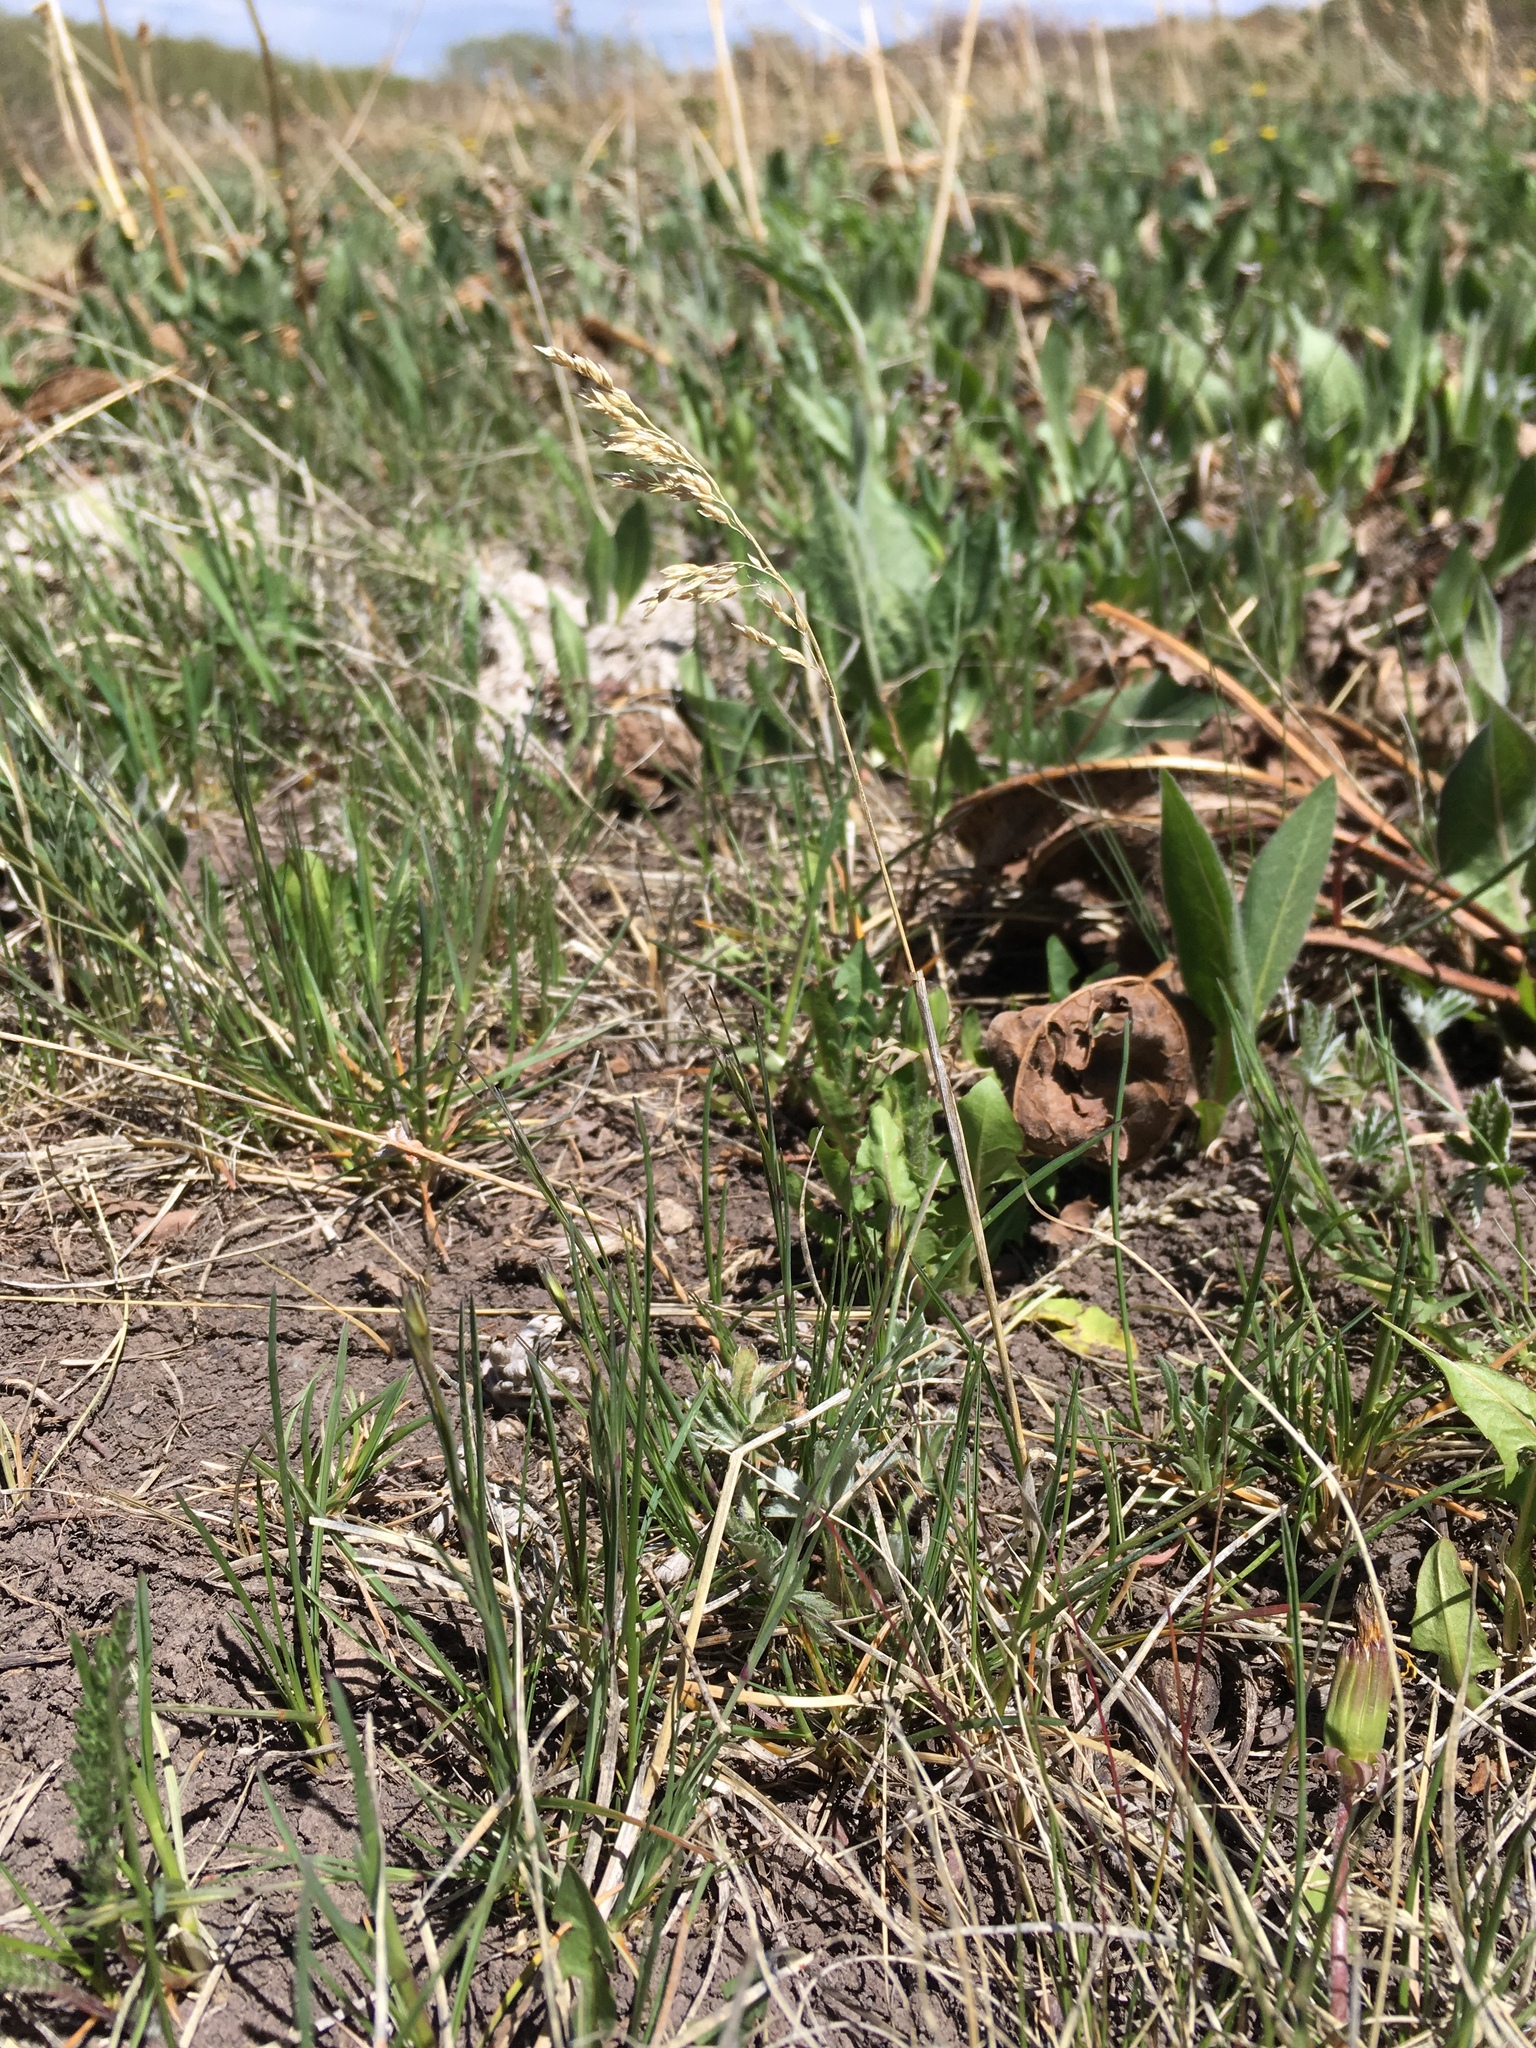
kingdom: Plantae
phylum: Tracheophyta
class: Liliopsida
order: Poales
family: Poaceae
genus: Poa
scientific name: Poa pratensis
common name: Kentucky bluegrass
